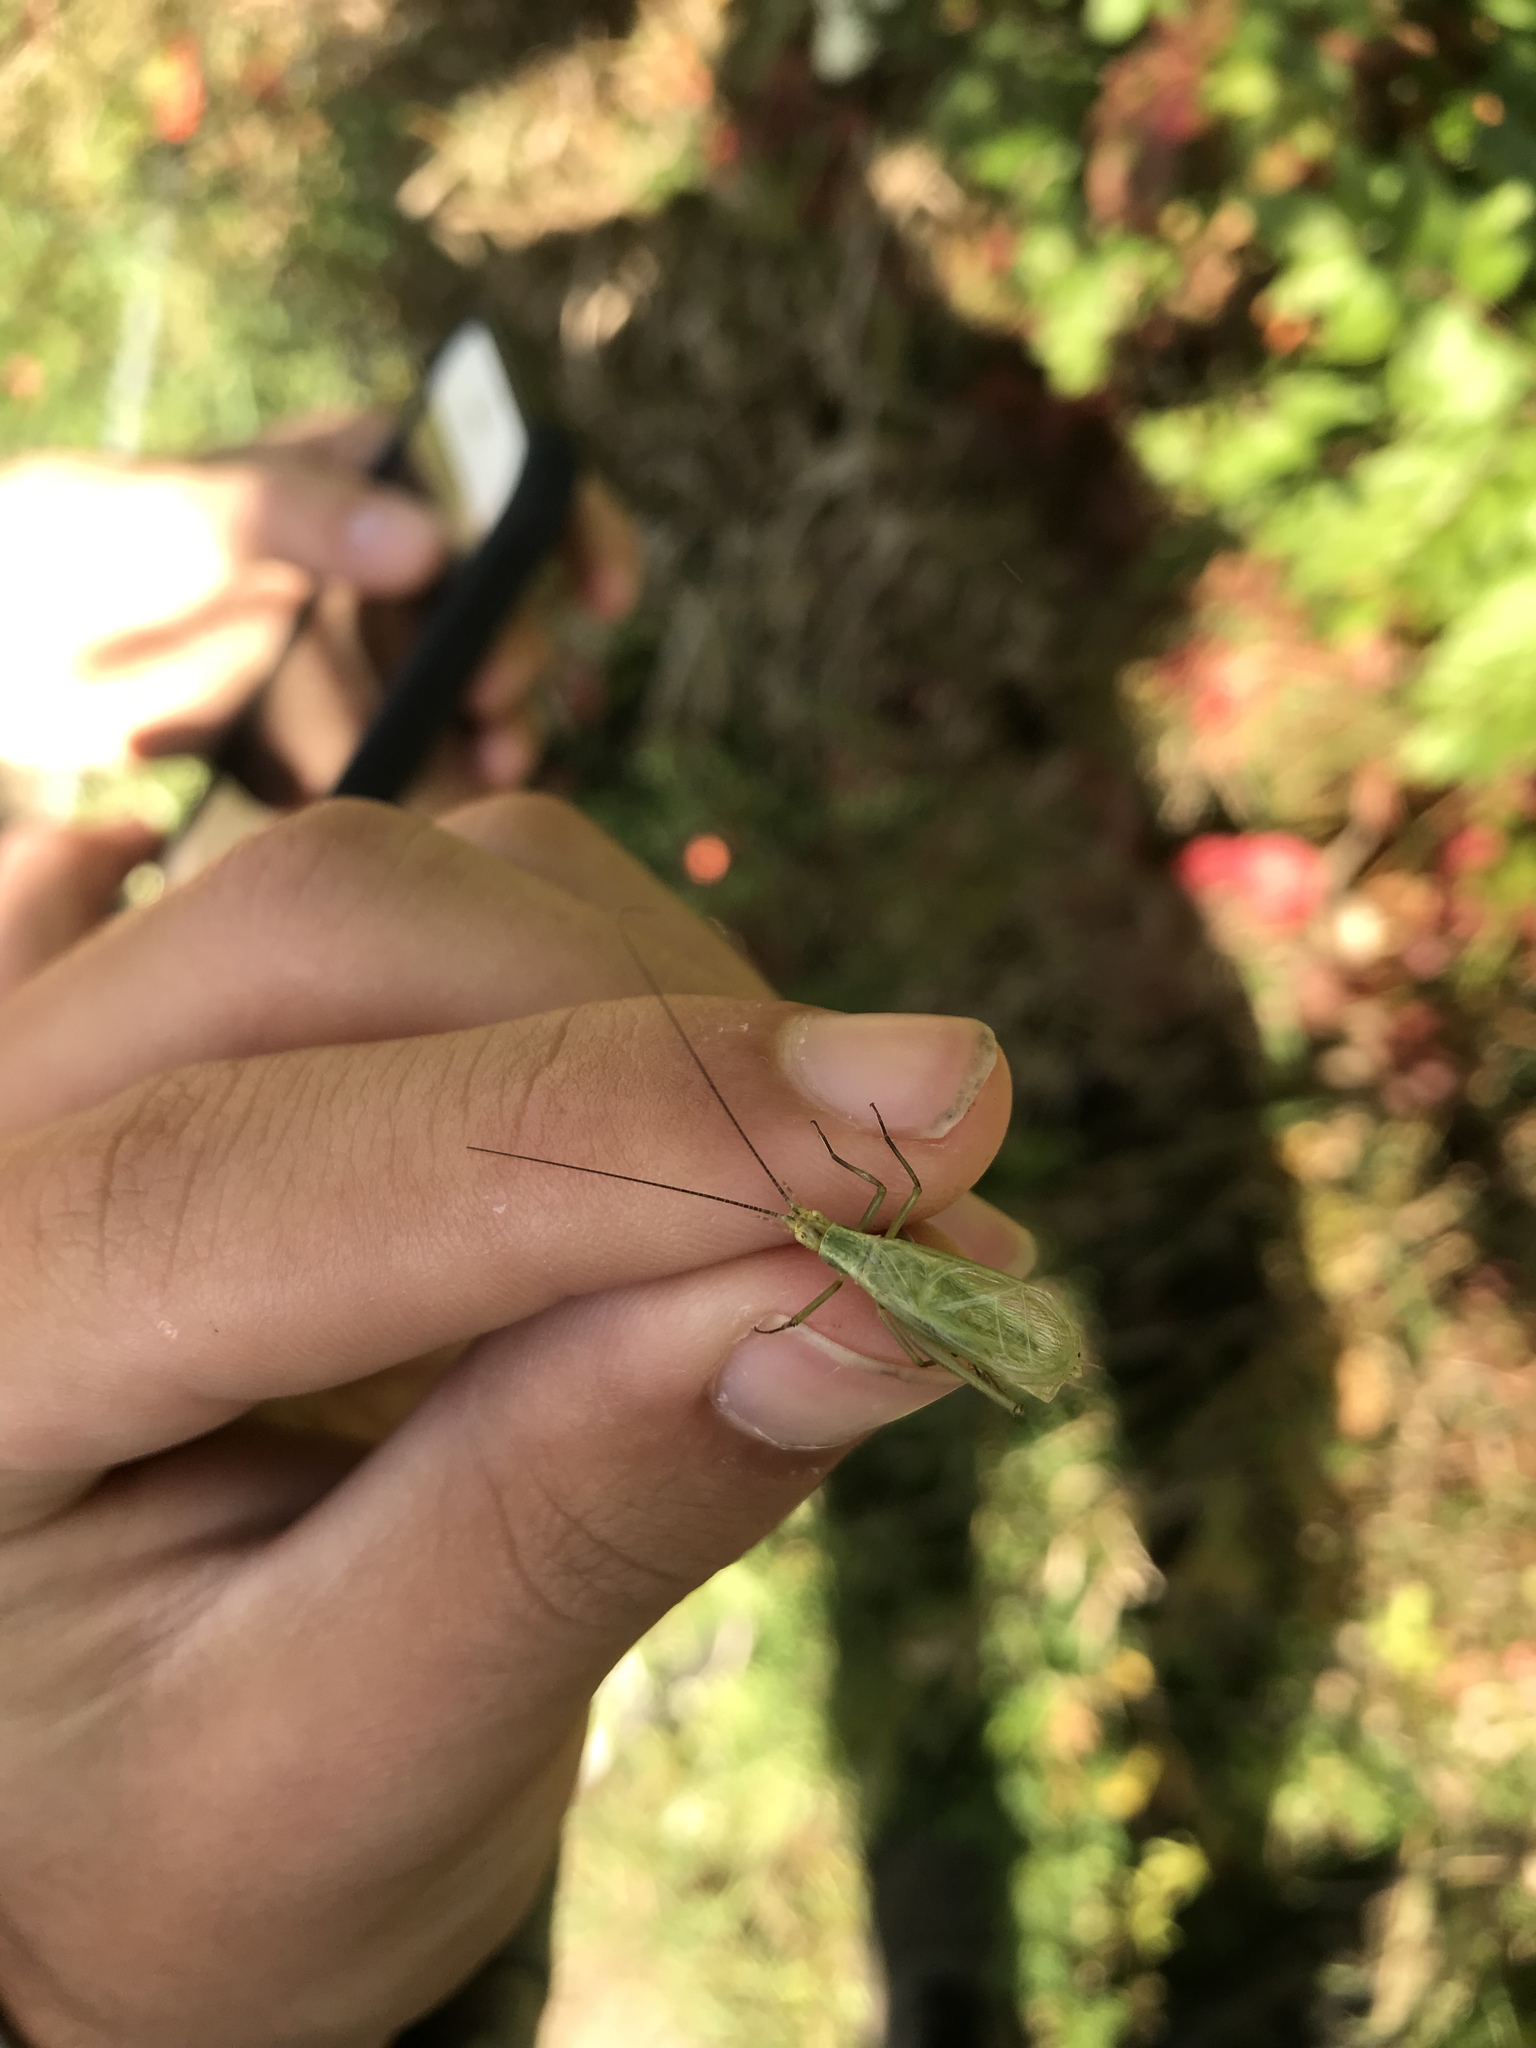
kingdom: Animalia
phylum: Arthropoda
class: Insecta
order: Orthoptera
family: Gryllidae
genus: Oecanthus
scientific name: Oecanthus nigricornis
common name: Black-horned tree cricket
